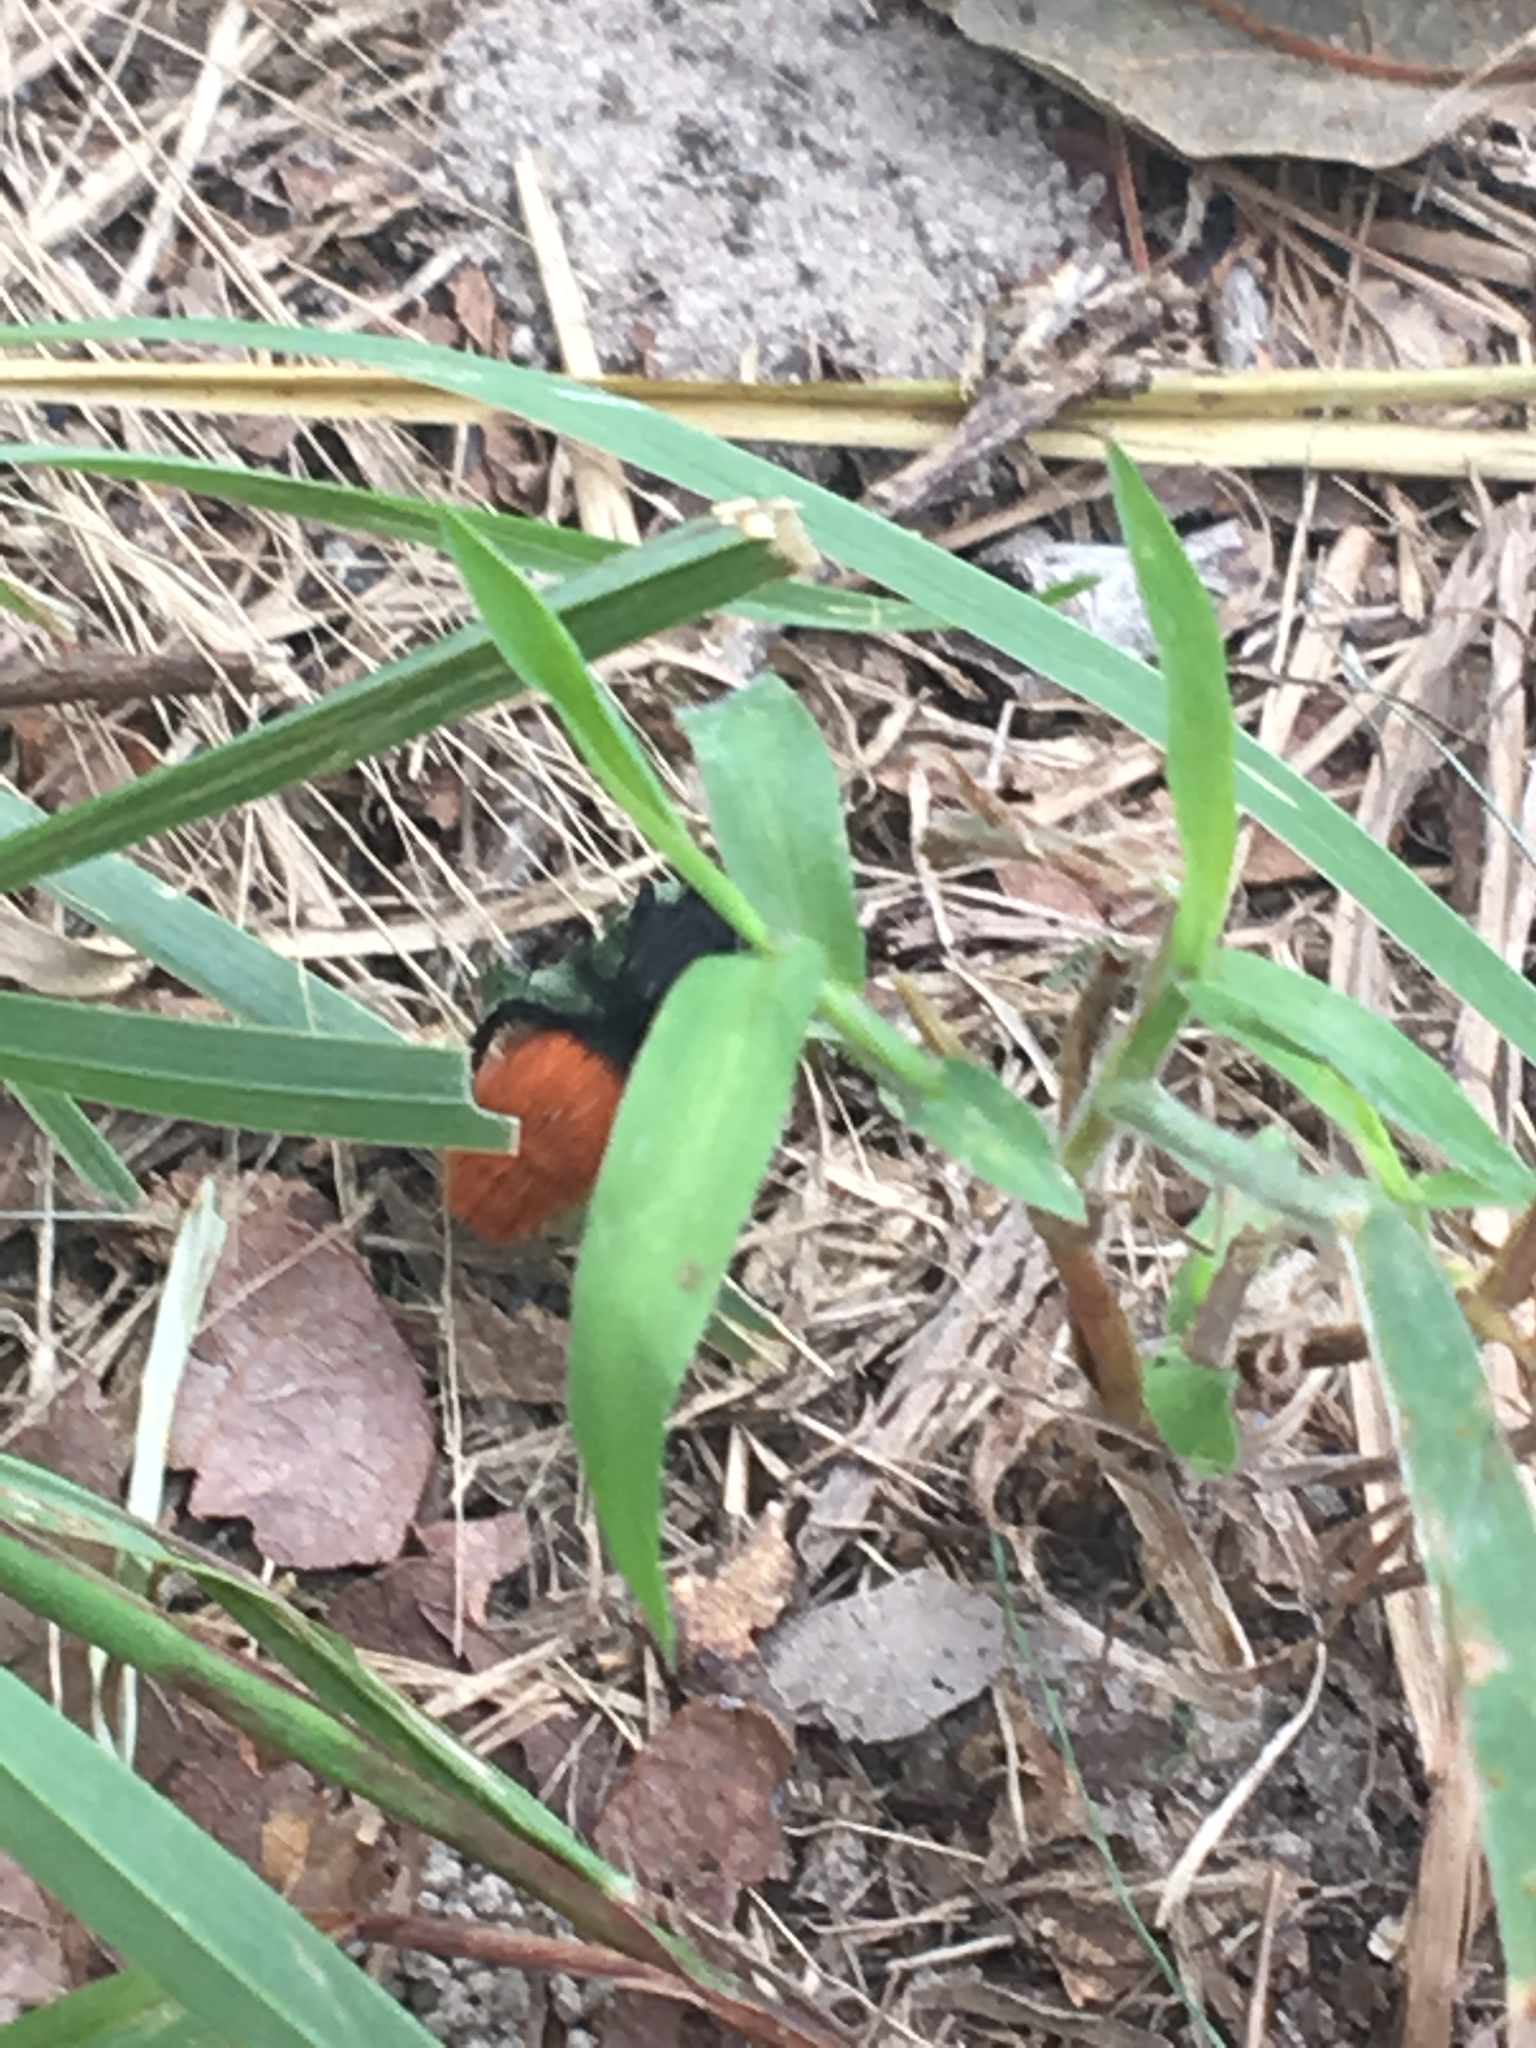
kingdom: Animalia
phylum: Arthropoda
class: Insecta
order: Hymenoptera
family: Mutillidae
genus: Dasymutilla
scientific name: Dasymutilla
